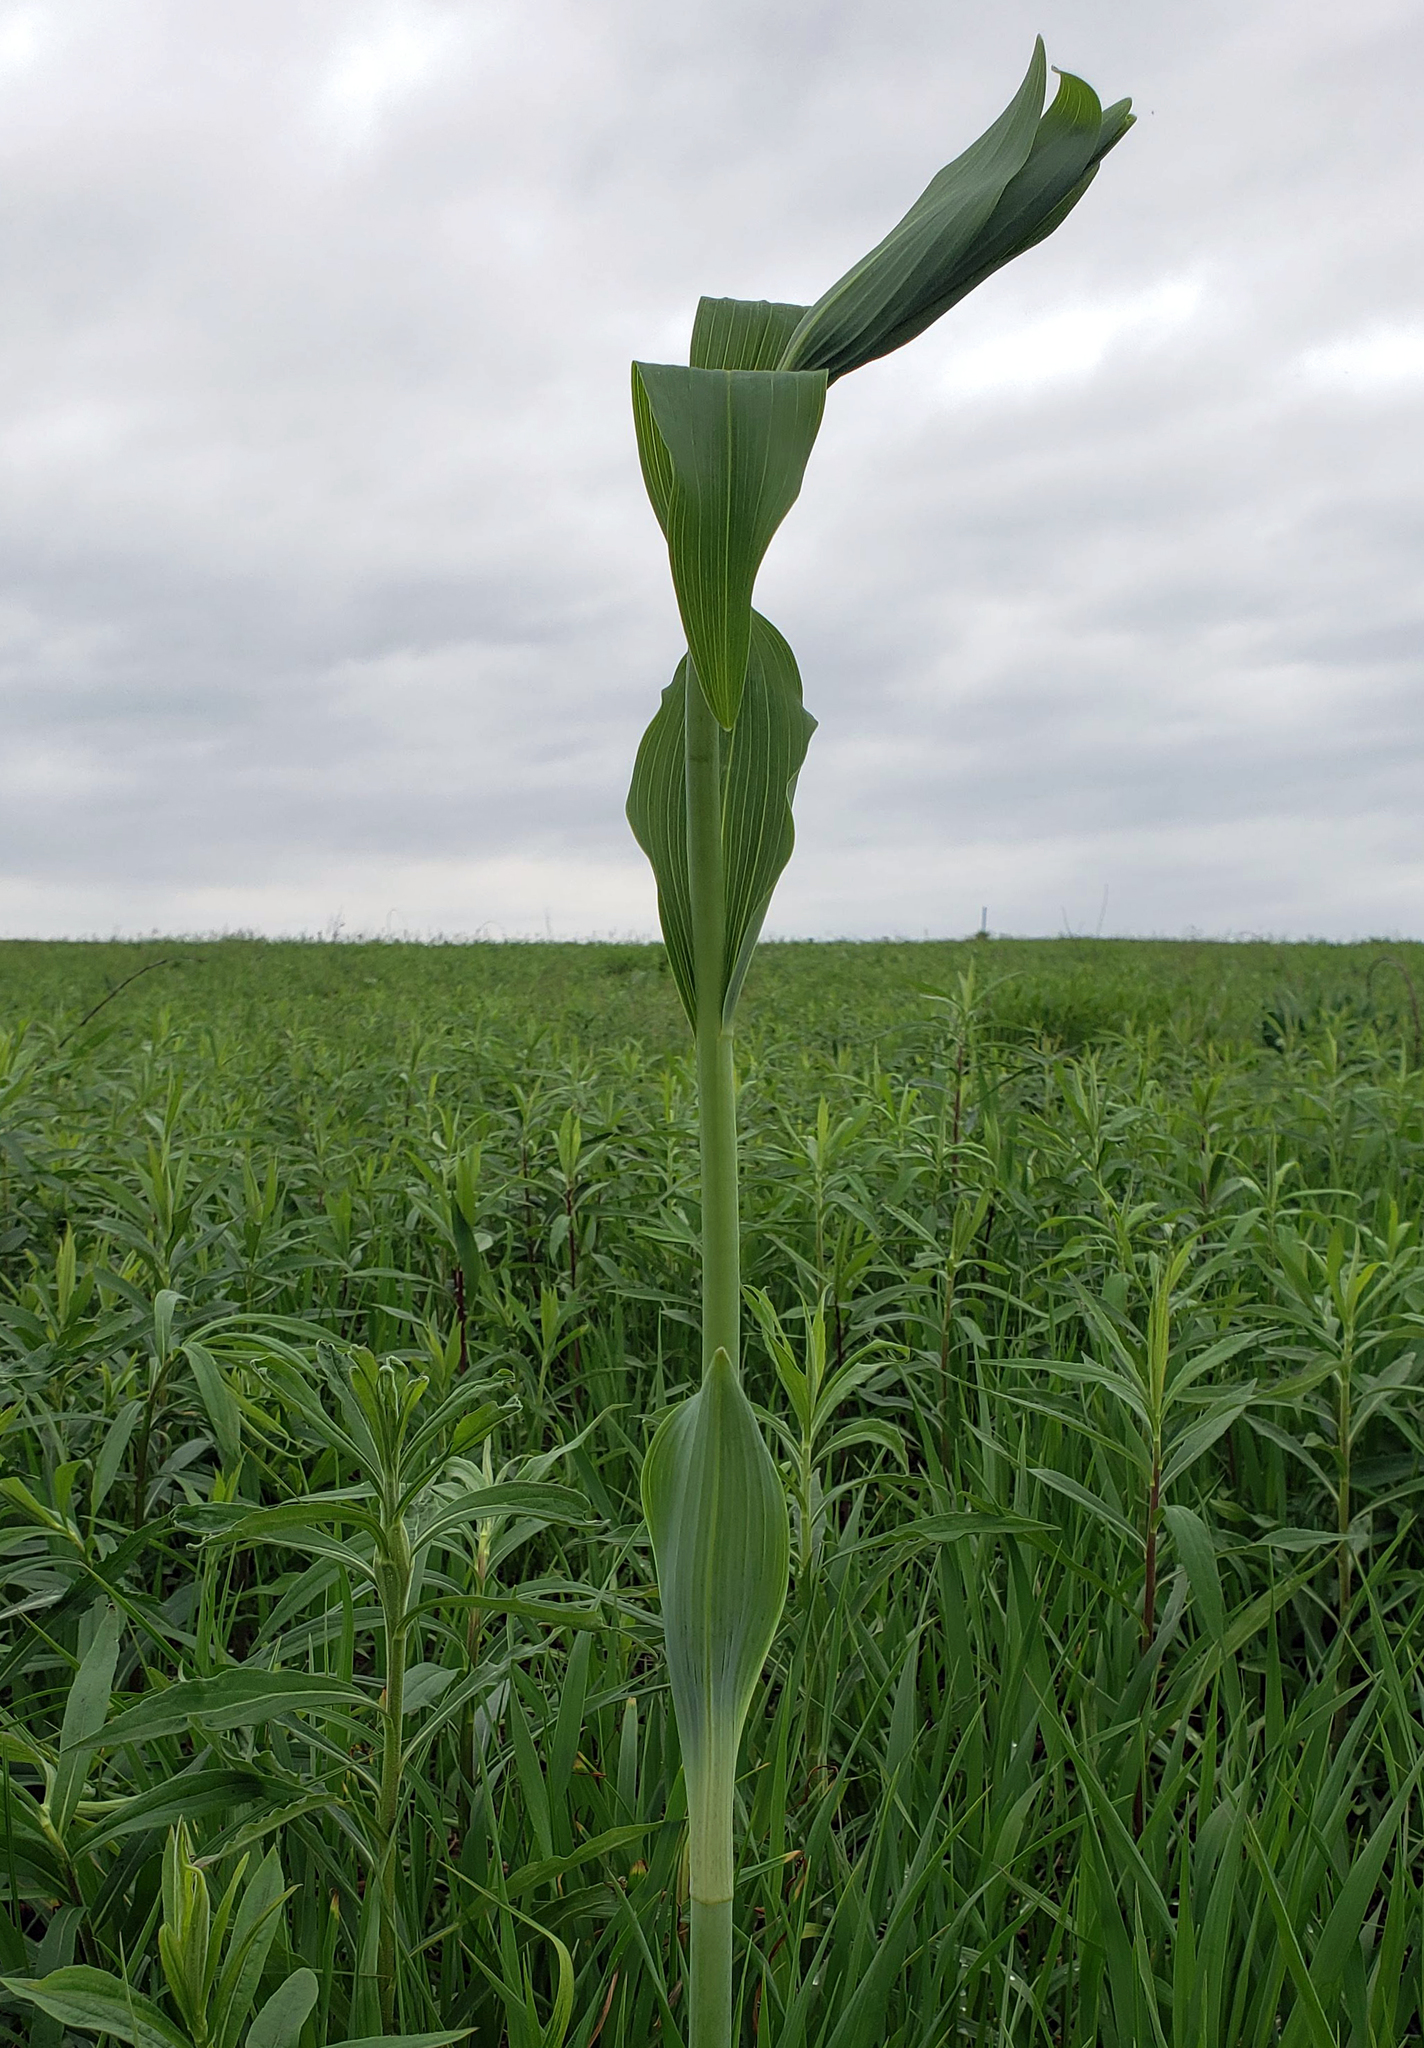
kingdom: Plantae
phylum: Tracheophyta
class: Liliopsida
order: Asparagales
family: Asparagaceae
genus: Polygonatum
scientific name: Polygonatum biflorum
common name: American solomon's-seal
